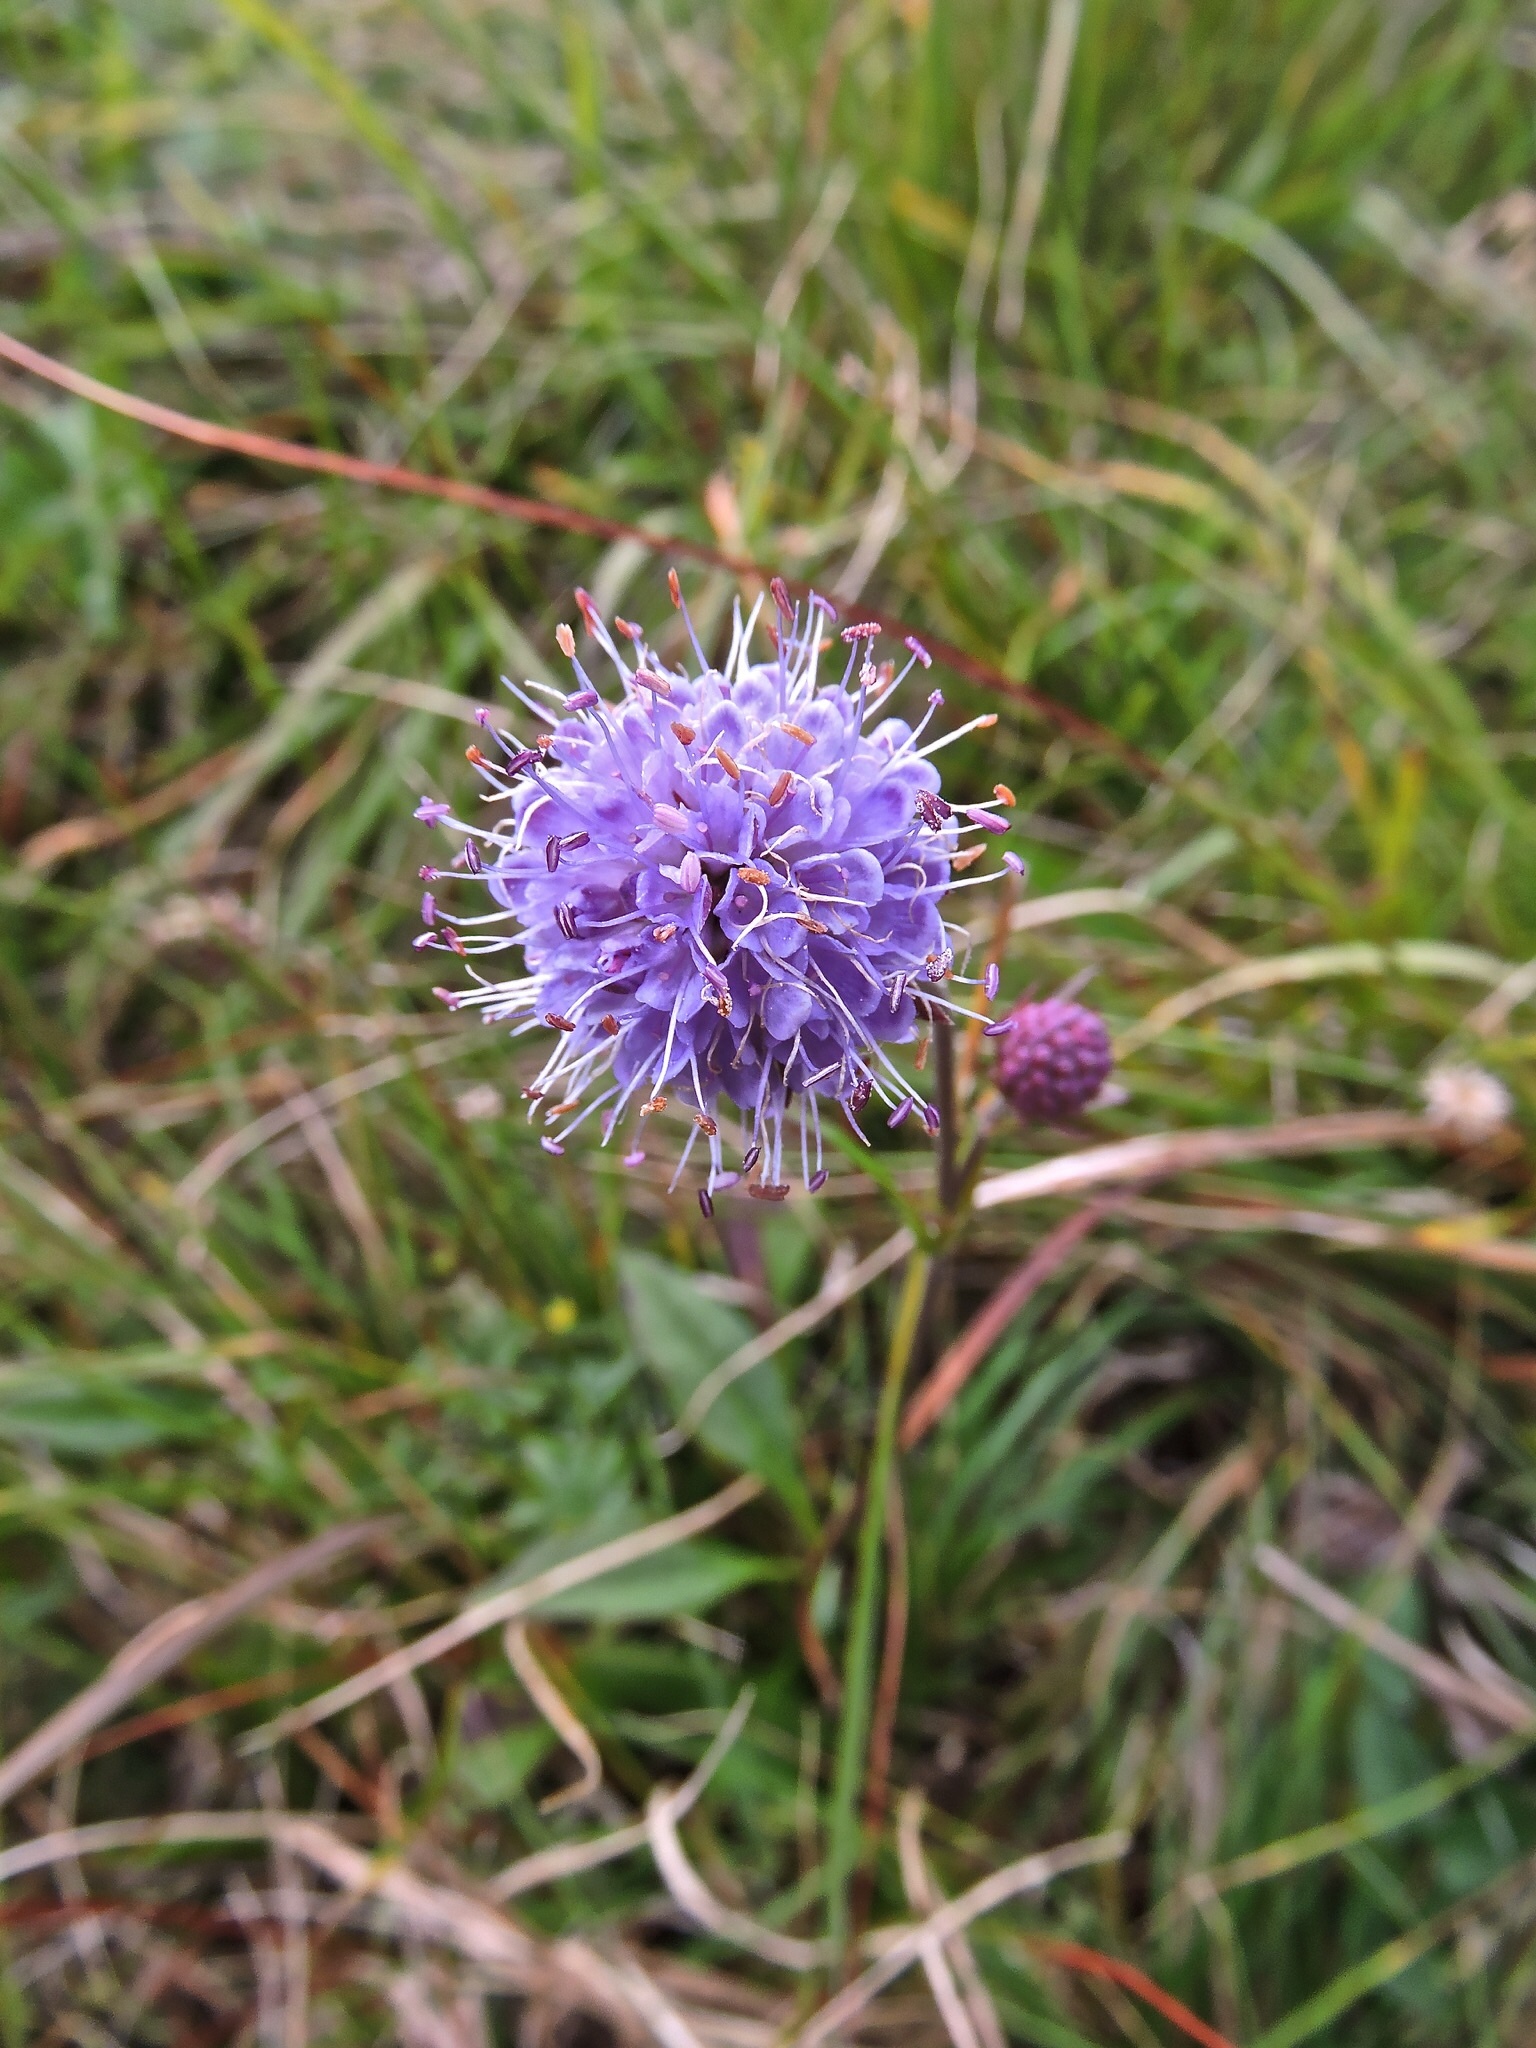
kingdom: Plantae
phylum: Tracheophyta
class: Magnoliopsida
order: Dipsacales
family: Caprifoliaceae
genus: Succisa
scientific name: Succisa pratensis
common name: Devil's-bit
